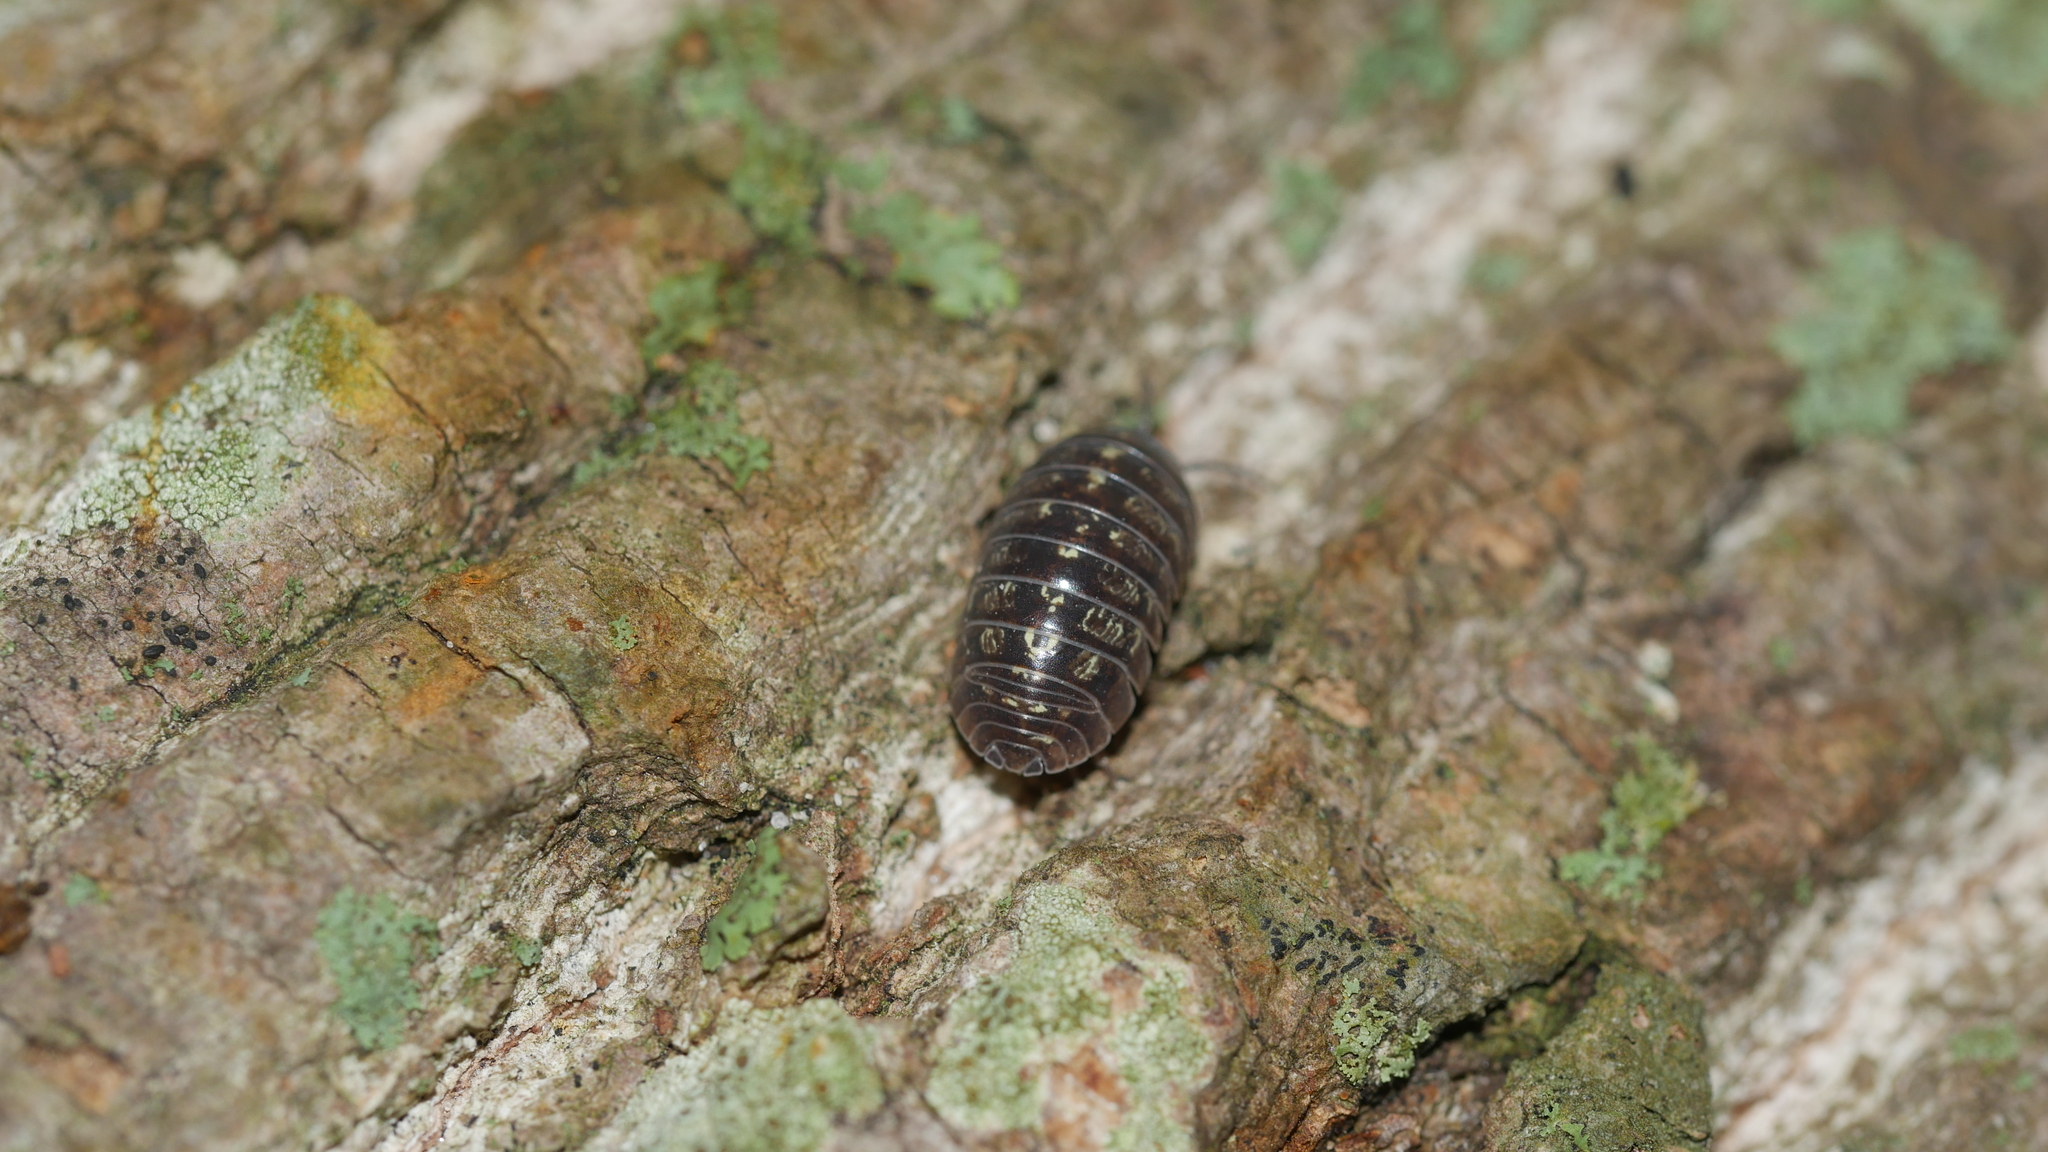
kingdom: Animalia
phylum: Arthropoda
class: Malacostraca
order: Isopoda
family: Armadillidiidae
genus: Armadillidium
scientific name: Armadillidium vulgare
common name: Common pill woodlouse
